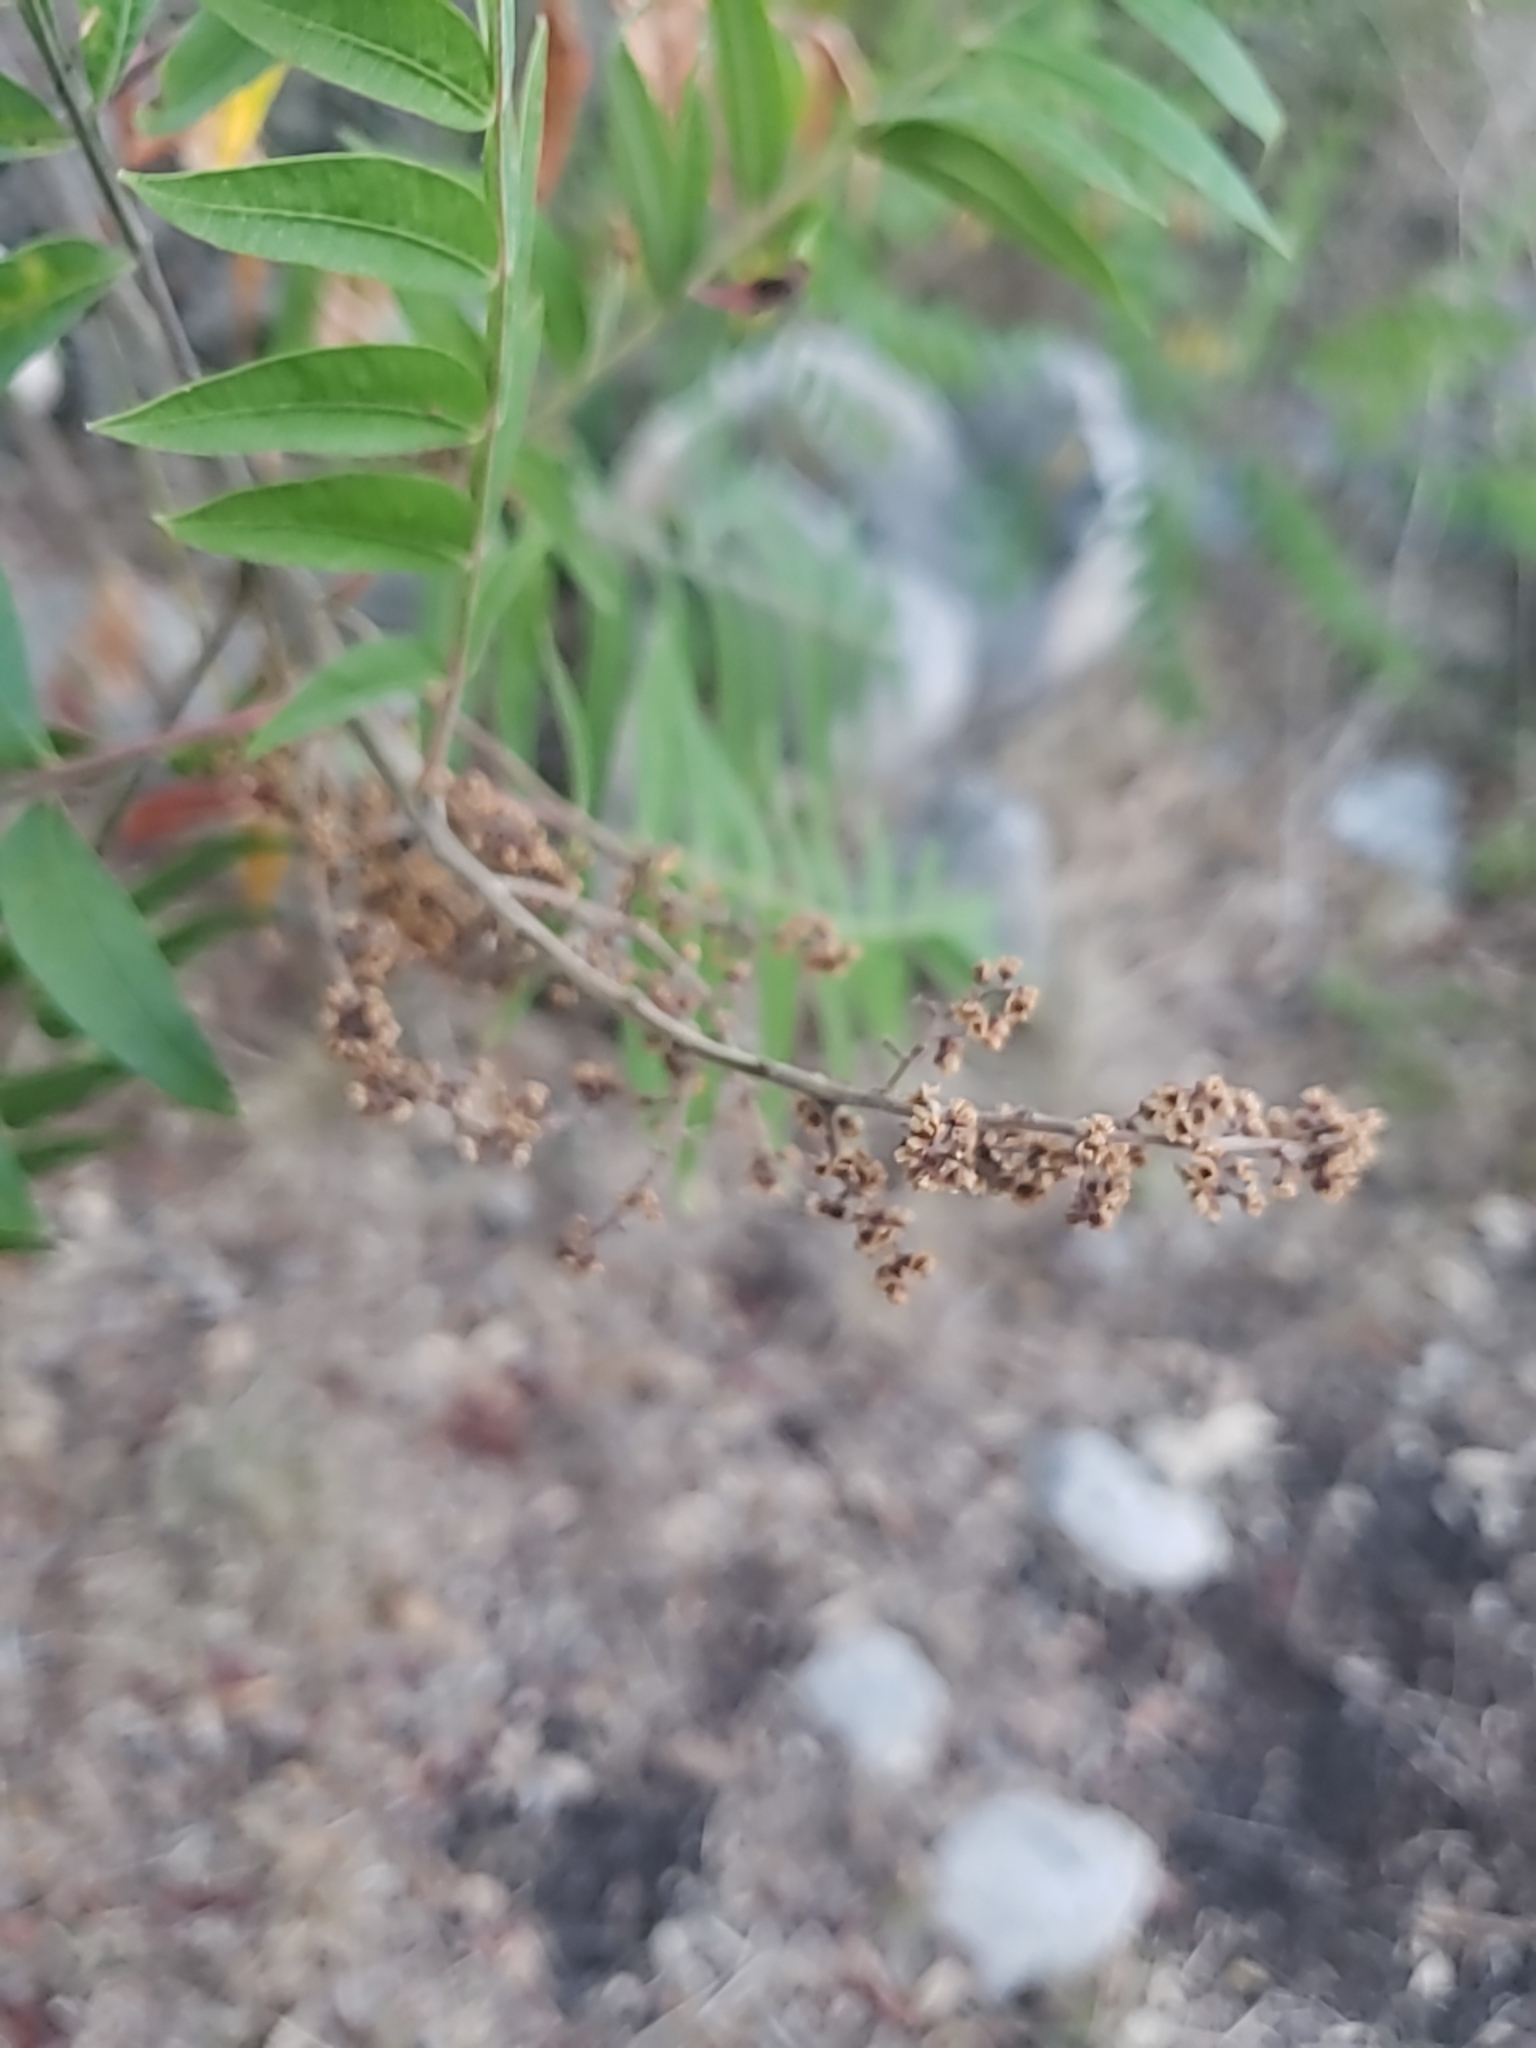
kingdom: Plantae
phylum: Tracheophyta
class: Magnoliopsida
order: Sapindales
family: Anacardiaceae
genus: Rhus
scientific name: Rhus lanceolata
